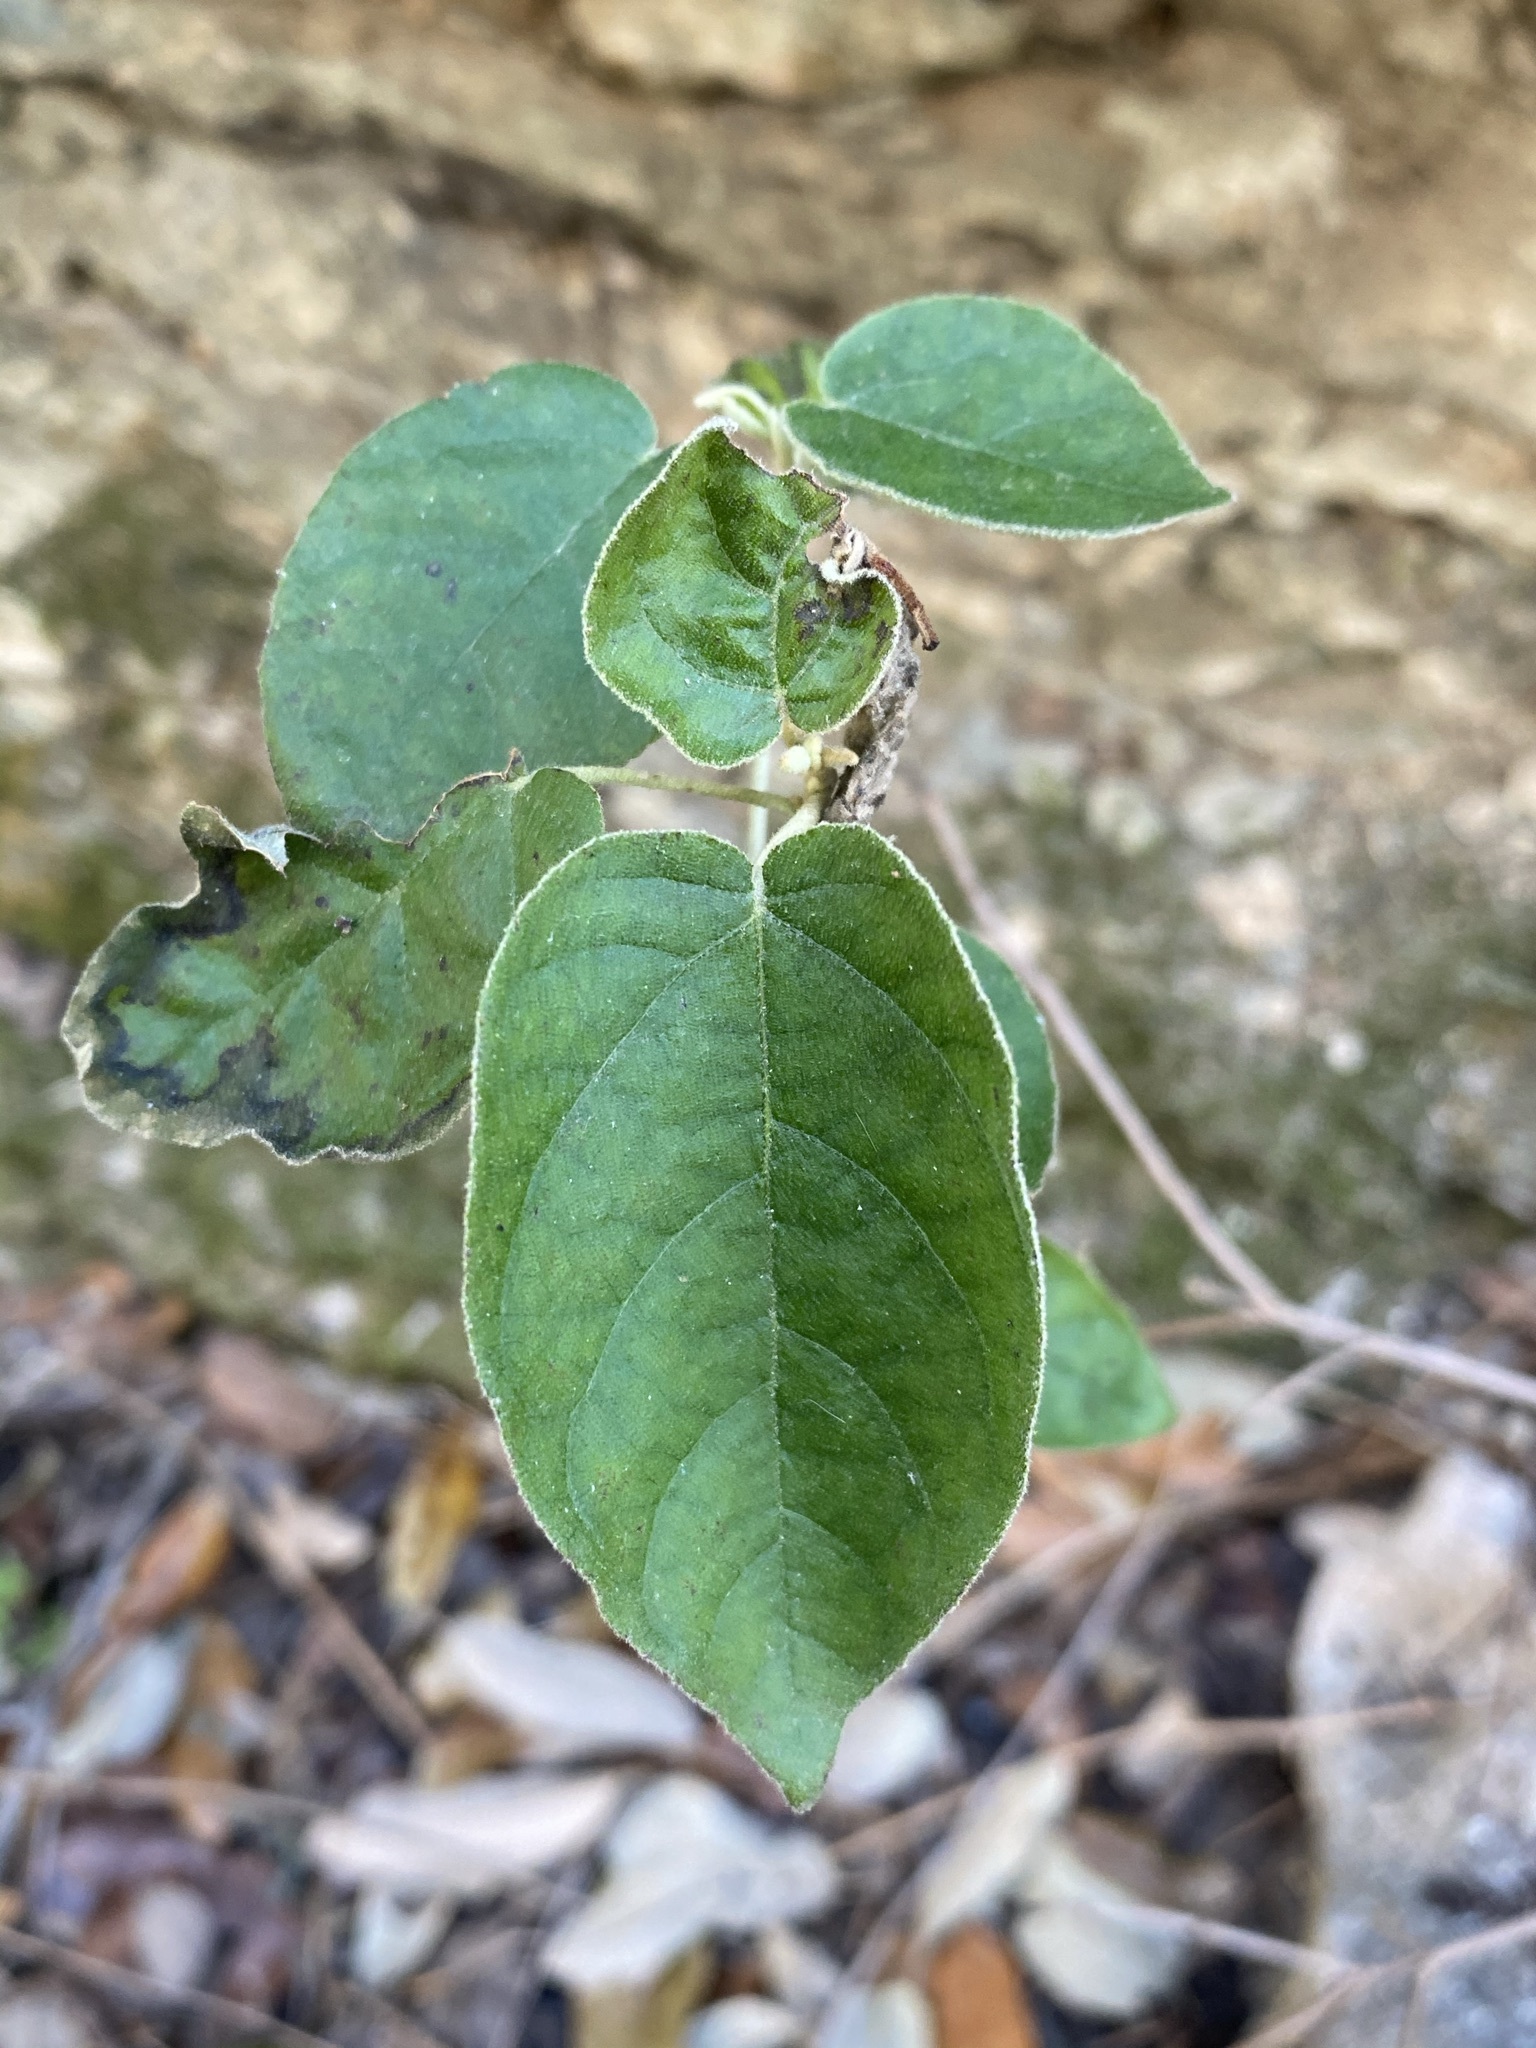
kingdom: Plantae
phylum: Tracheophyta
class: Magnoliopsida
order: Malpighiales
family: Euphorbiaceae
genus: Croton
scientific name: Croton fruticulosus
